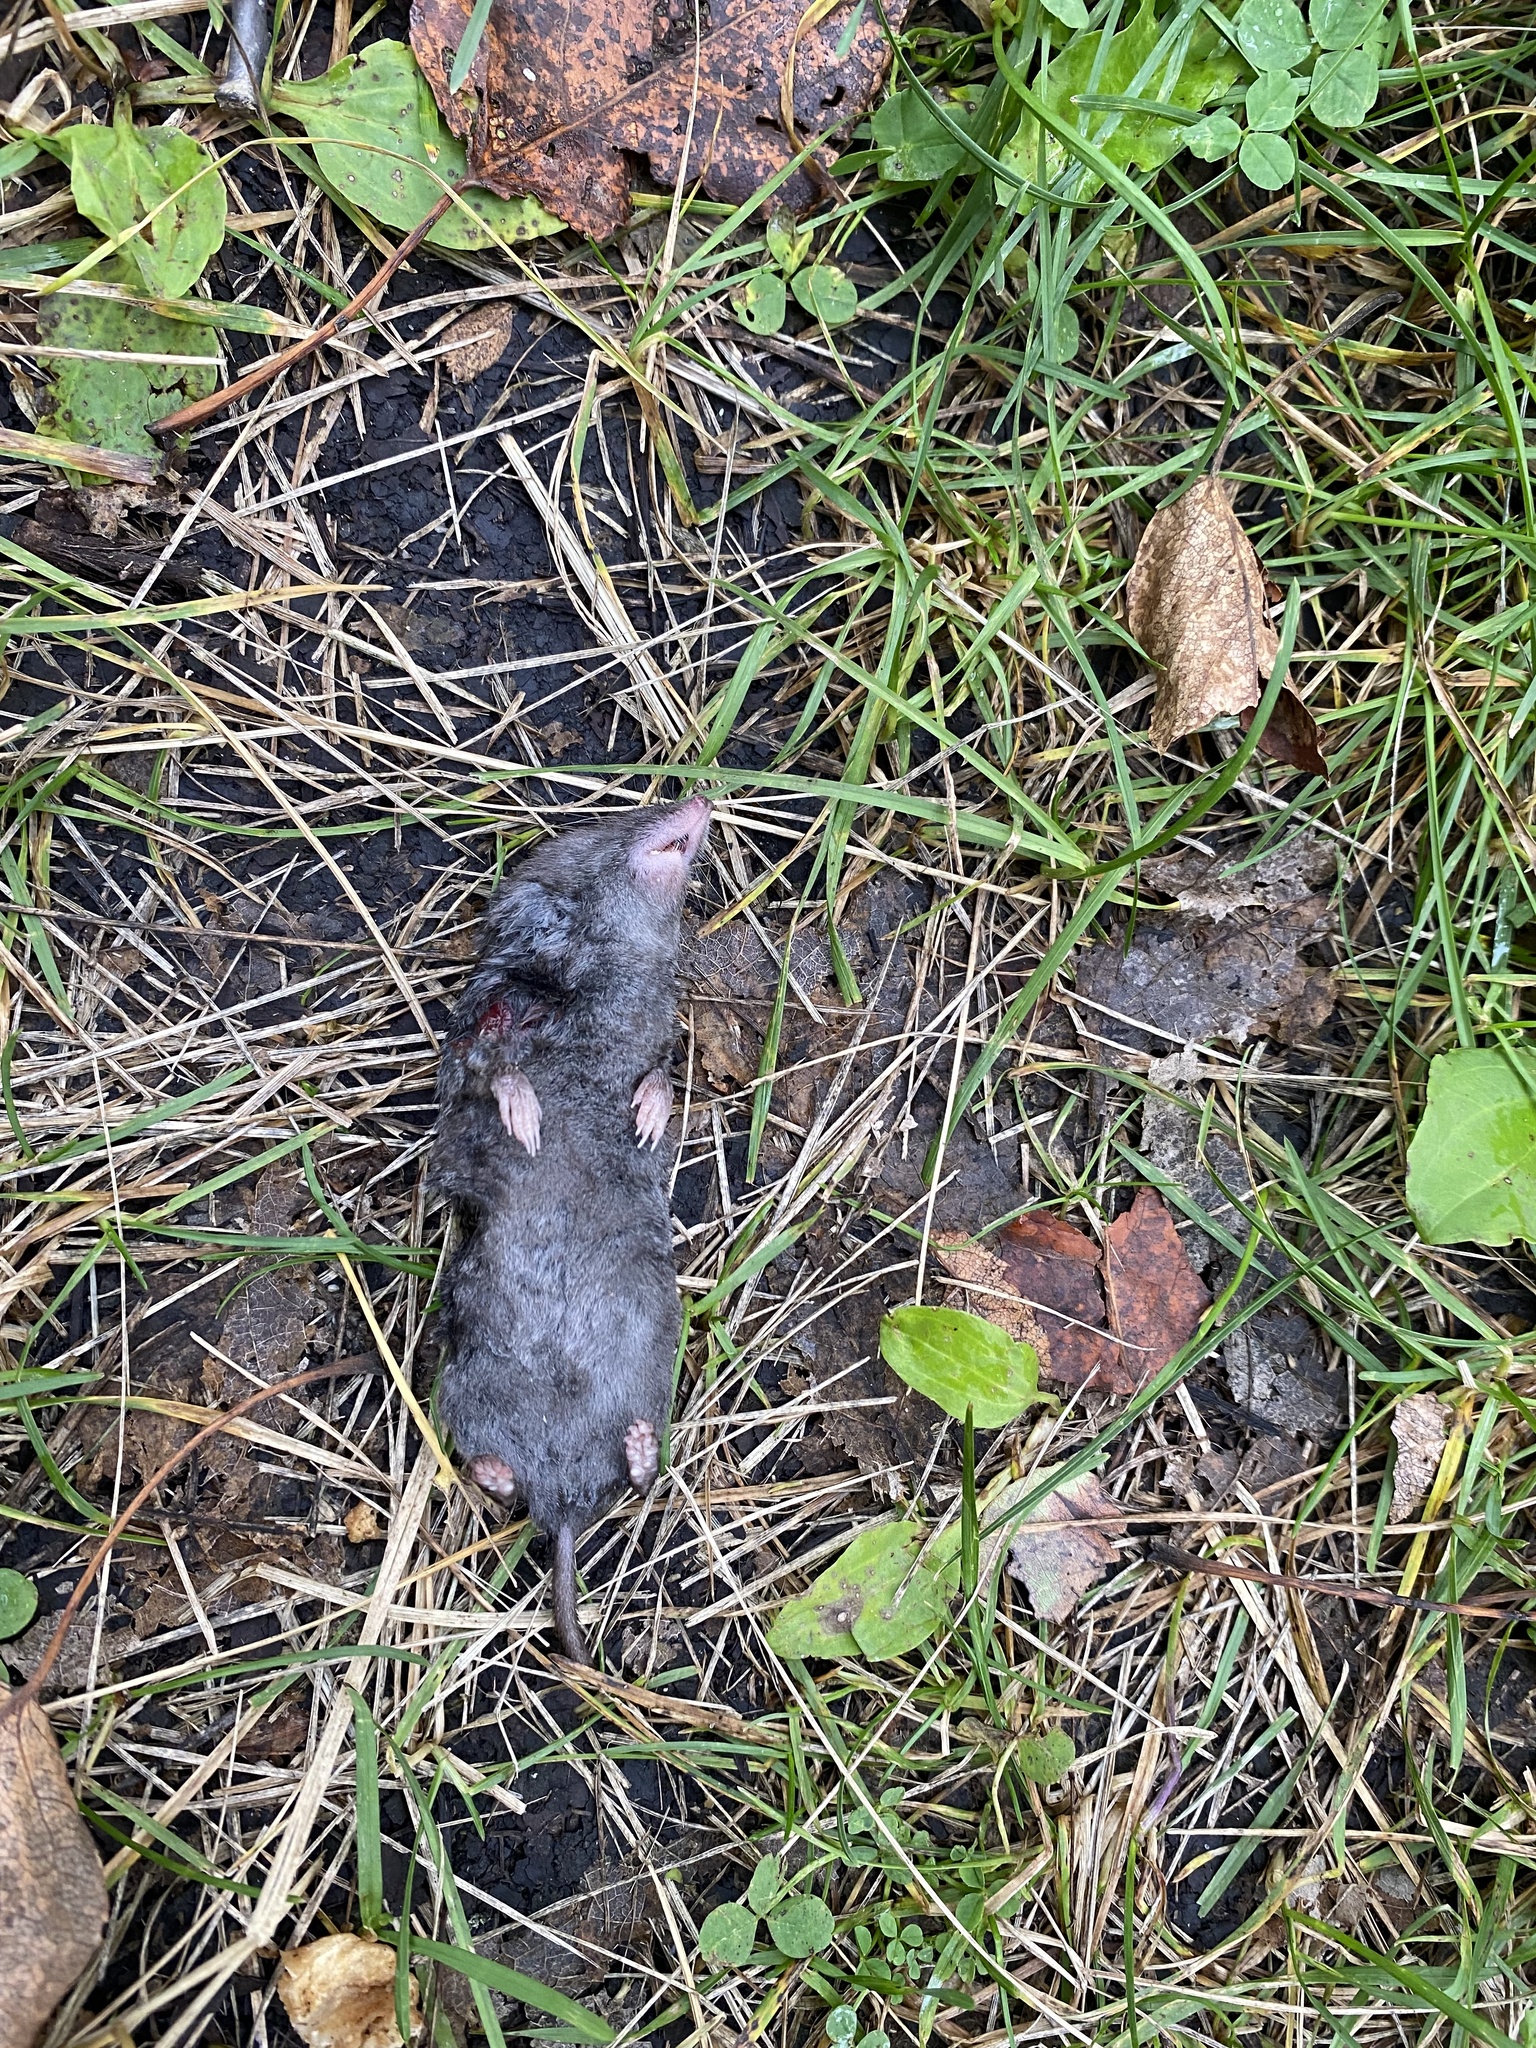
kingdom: Animalia
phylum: Chordata
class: Mammalia
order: Soricomorpha
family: Soricidae
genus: Blarina
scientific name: Blarina brevicauda
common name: Northern short-tailed shrew
